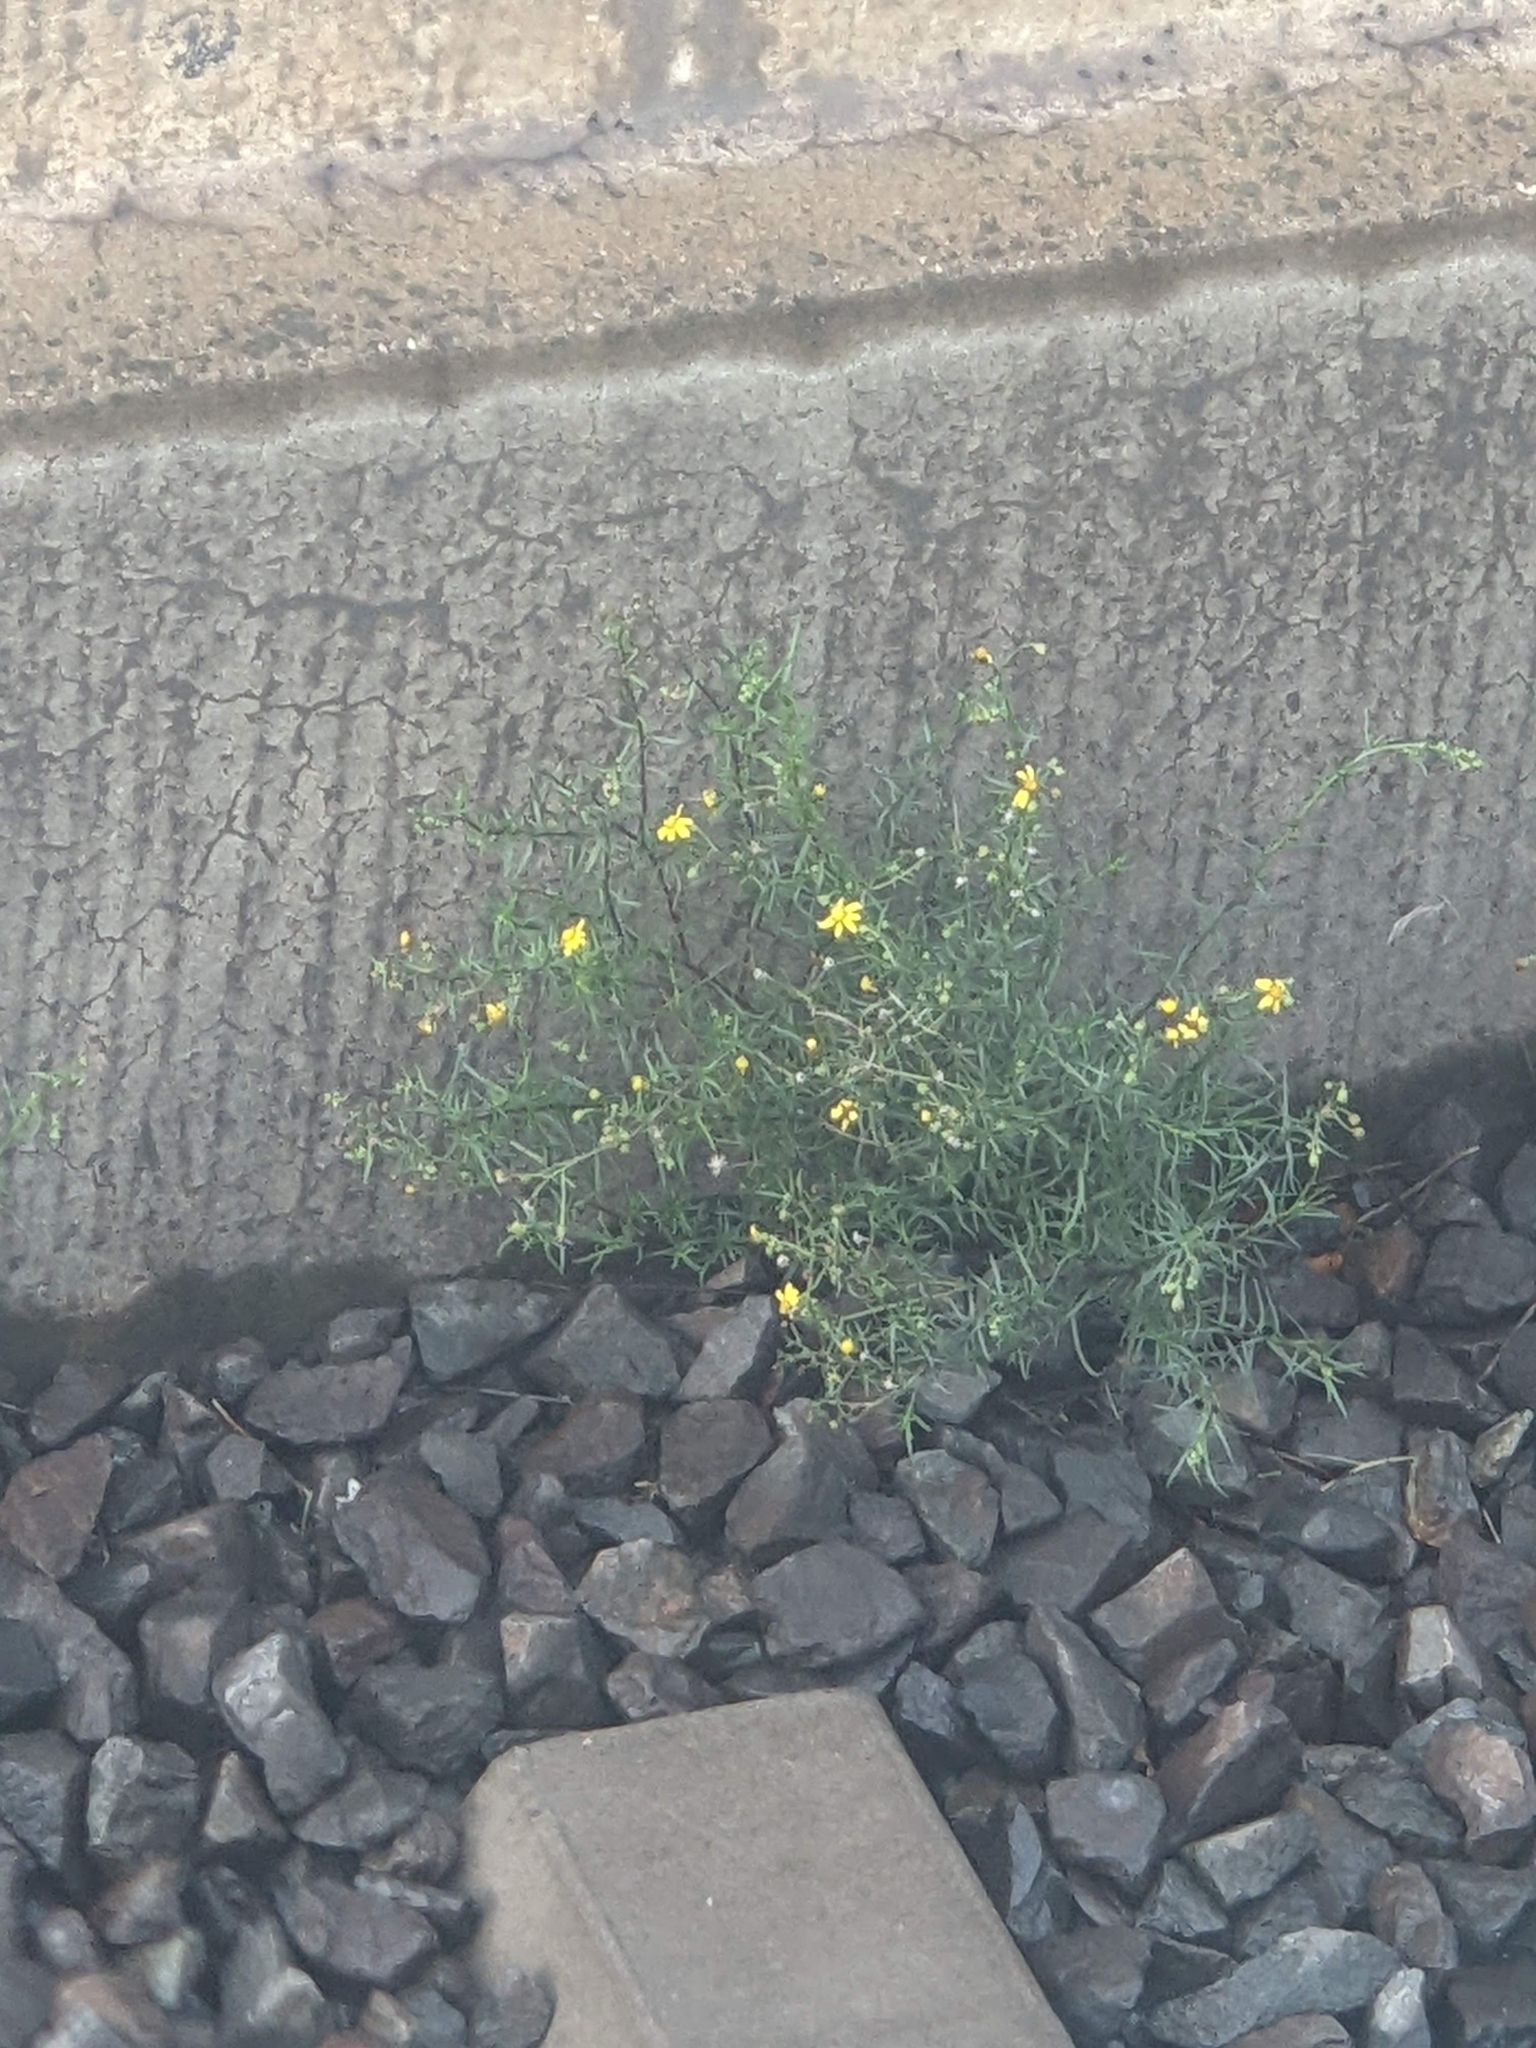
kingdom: Plantae
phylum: Tracheophyta
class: Magnoliopsida
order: Asterales
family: Asteraceae
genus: Senecio
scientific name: Senecio inaequidens
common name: Narrow-leaved ragwort
